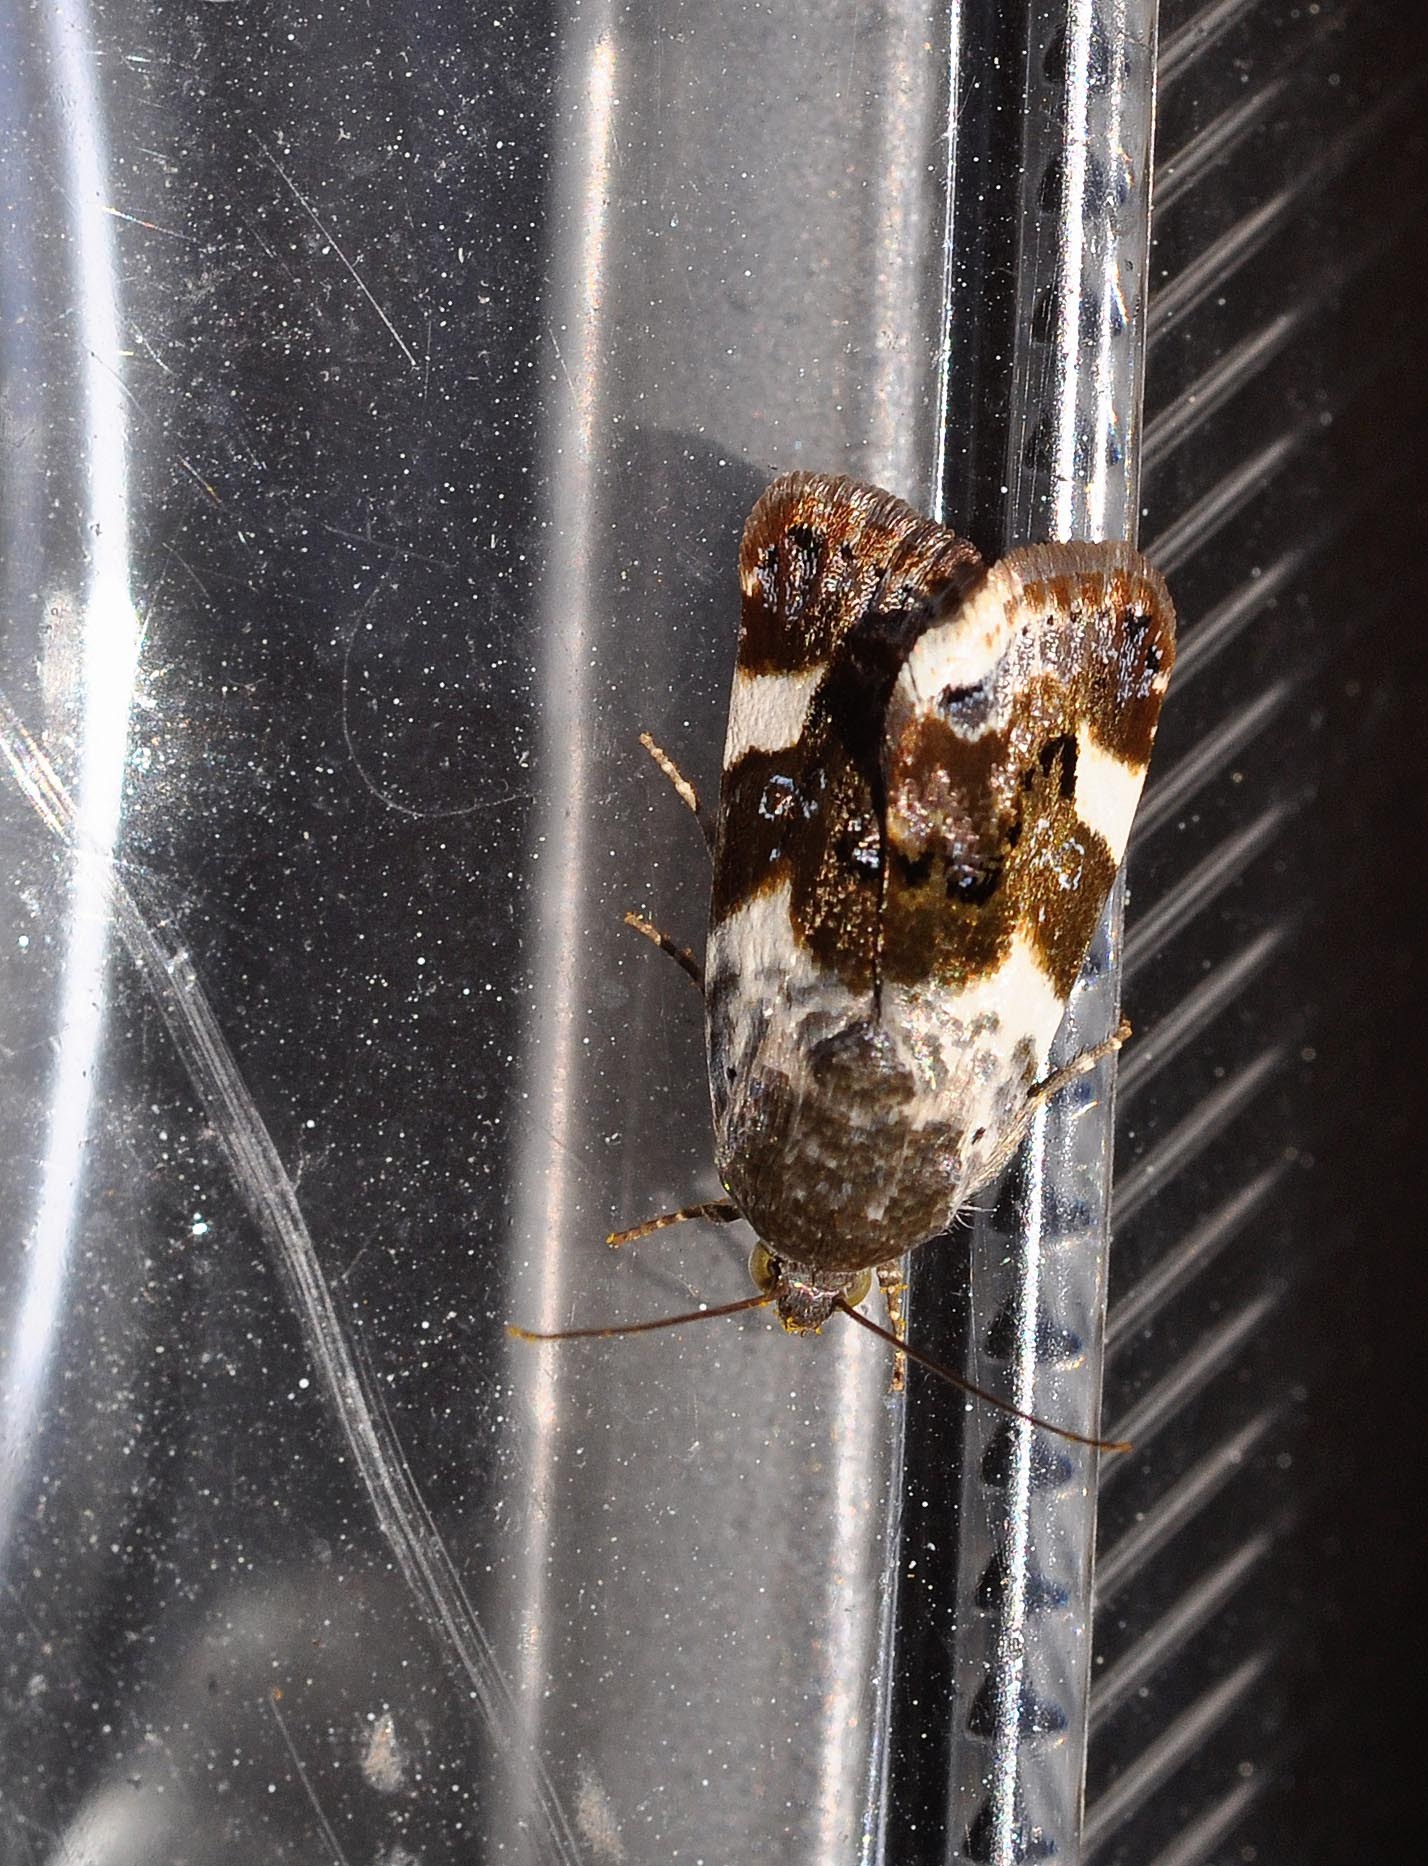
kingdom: Animalia
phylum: Arthropoda
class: Insecta
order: Lepidoptera
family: Noctuidae
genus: Acontia
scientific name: Acontia lucida
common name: Pale shoulder
